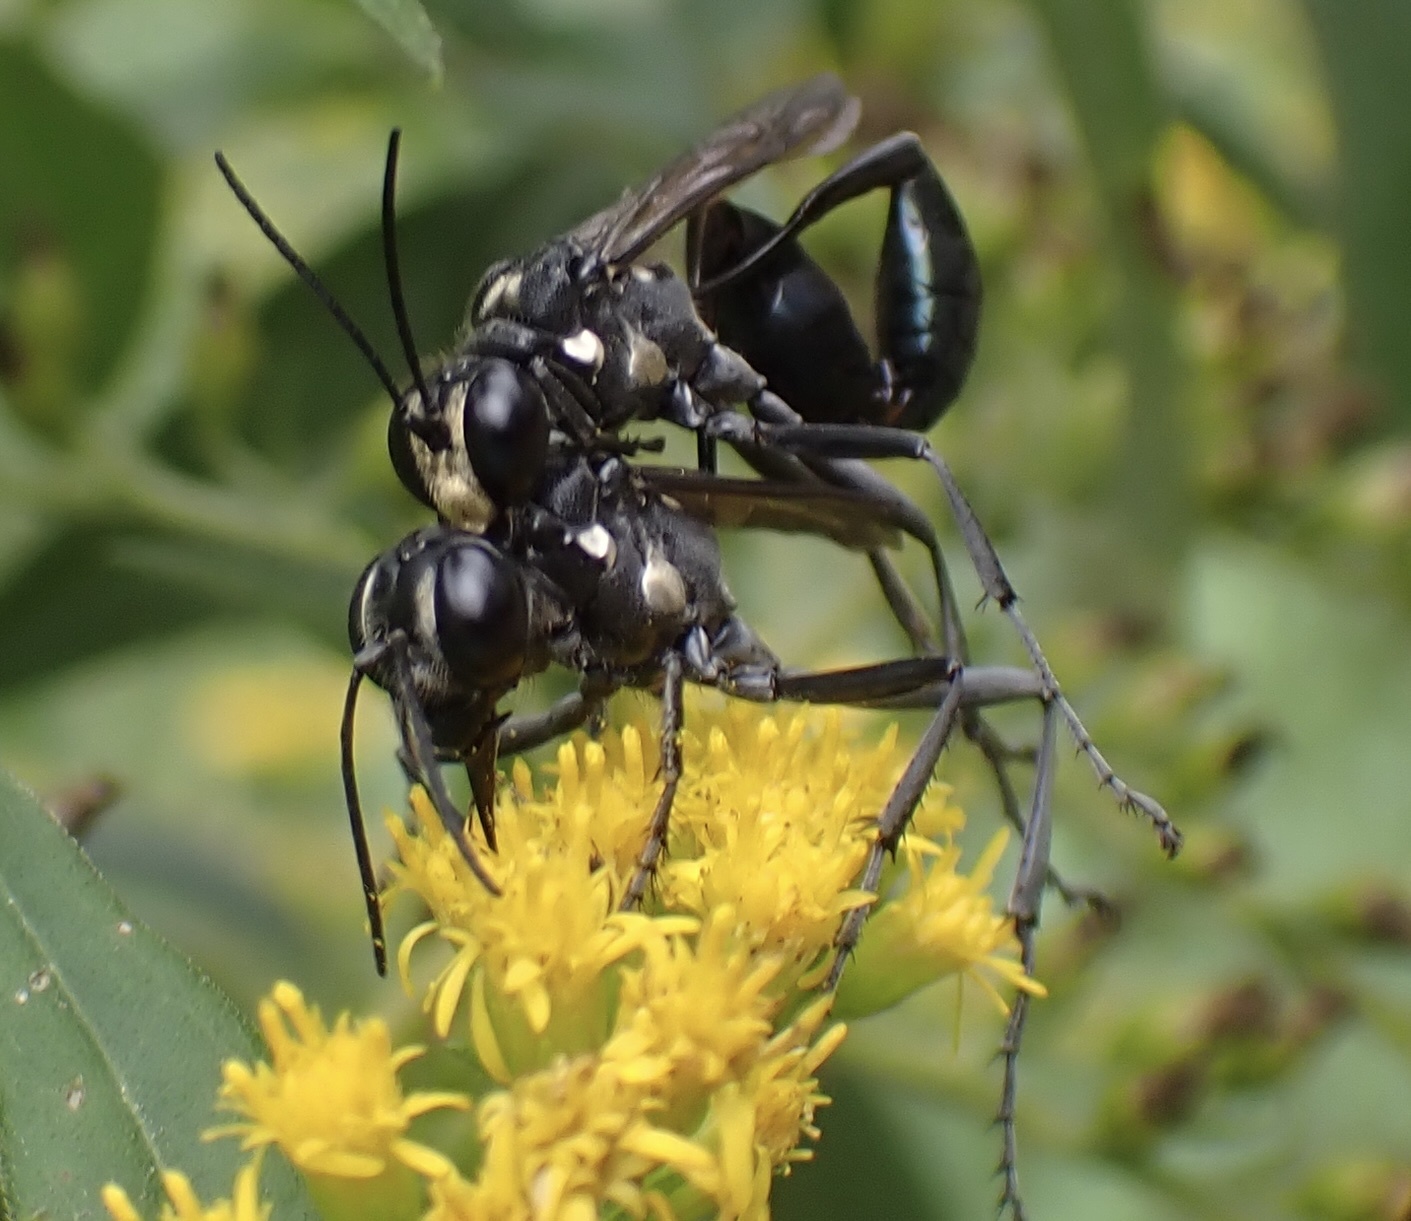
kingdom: Animalia
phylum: Arthropoda
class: Insecta
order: Hymenoptera
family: Sphecidae
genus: Eremnophila
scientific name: Eremnophila aureonotata
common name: Gold-marked thread-waisted wasp
